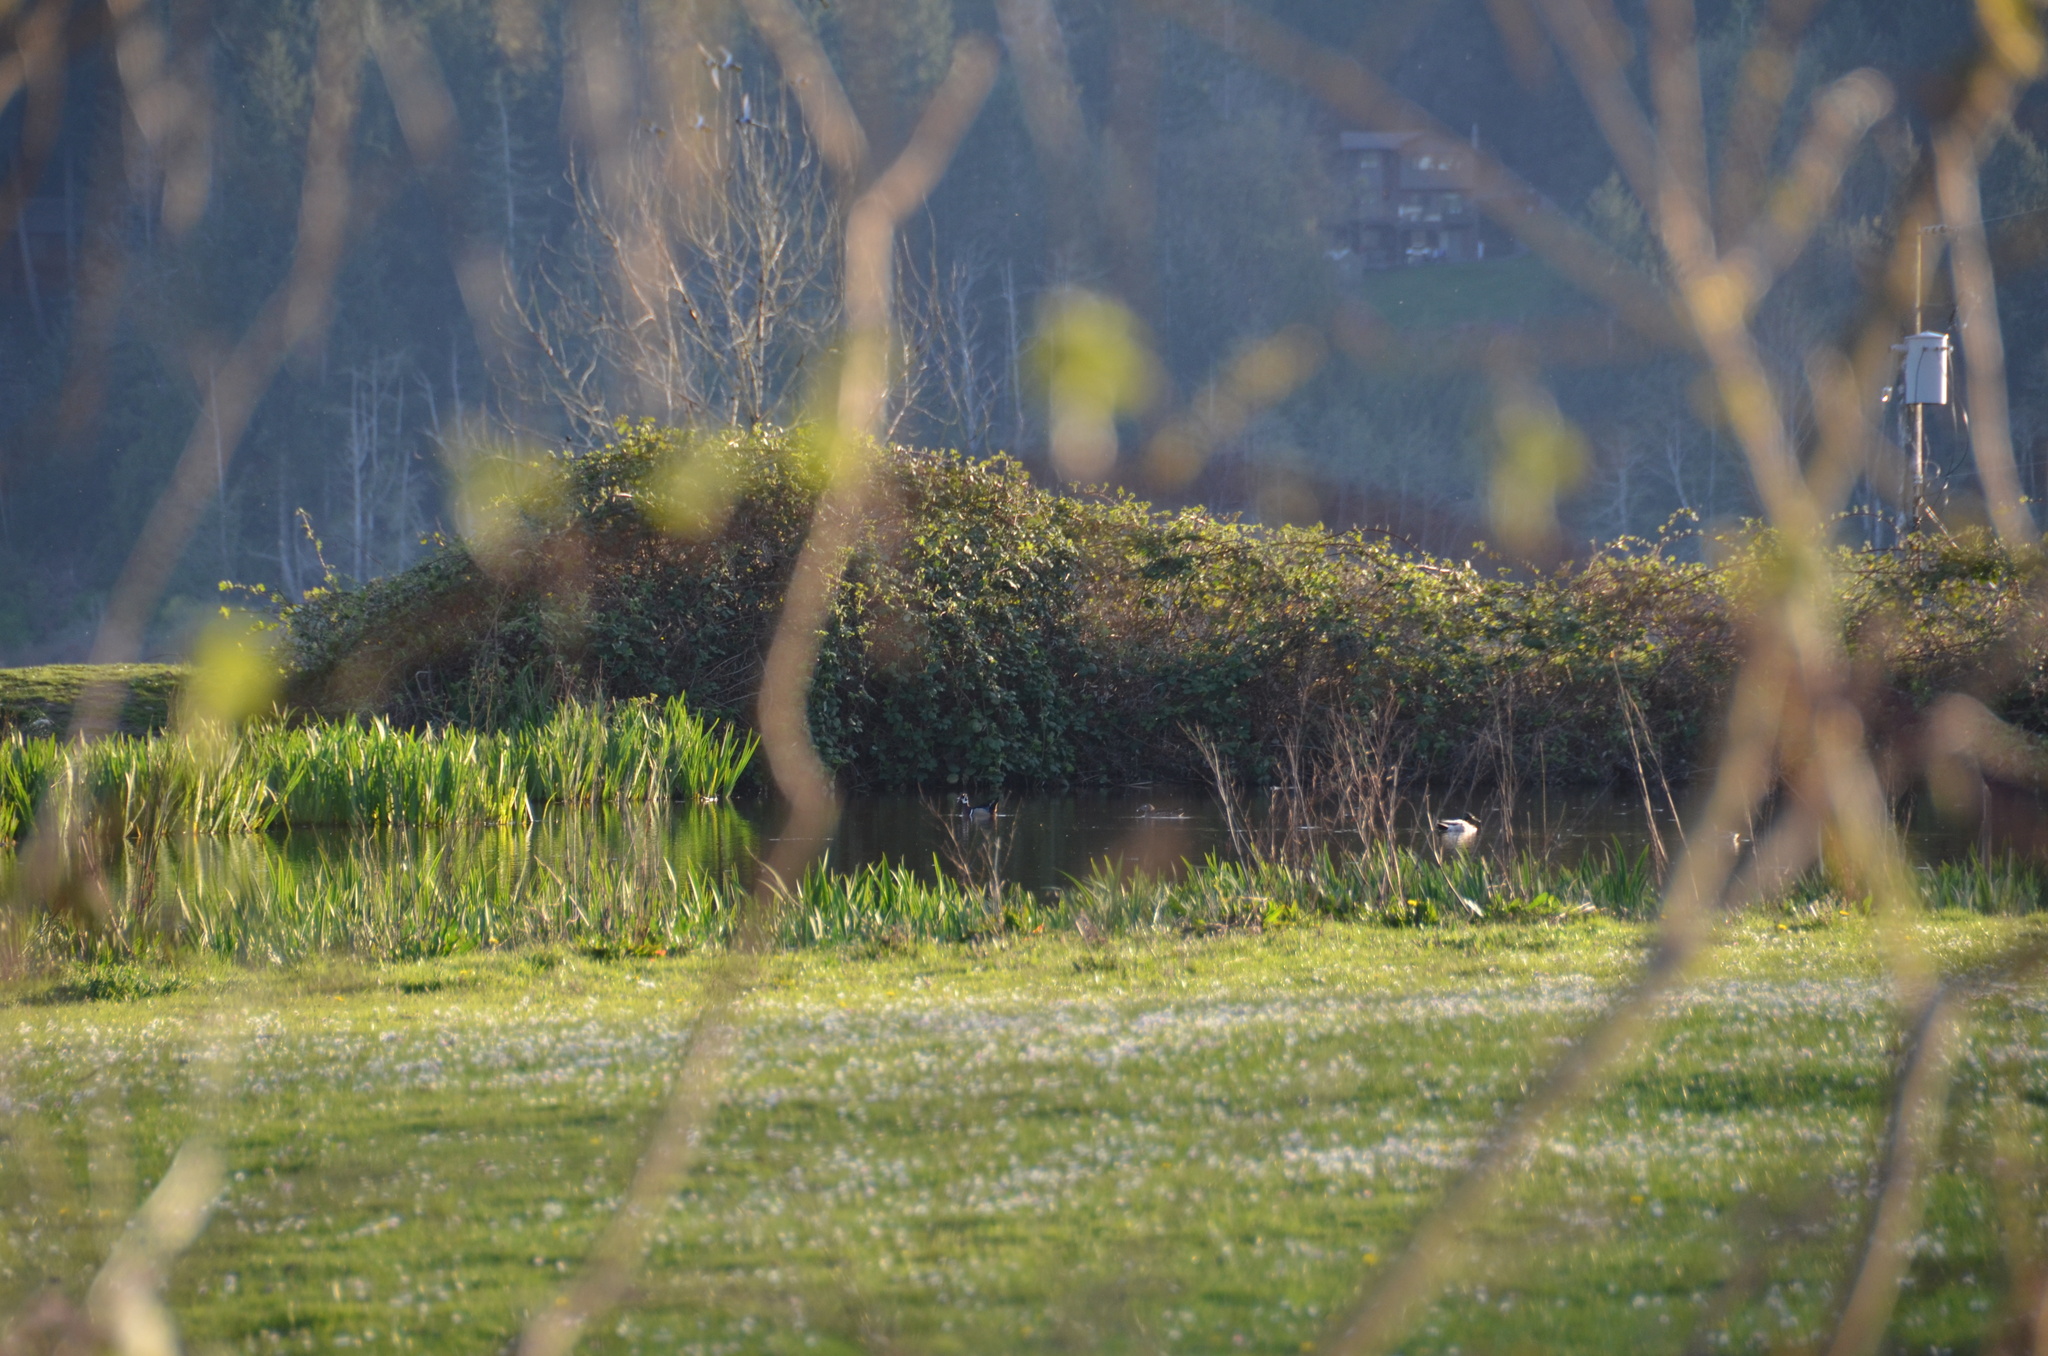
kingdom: Animalia
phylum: Chordata
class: Aves
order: Anseriformes
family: Anatidae
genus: Aix
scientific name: Aix sponsa
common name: Wood duck
